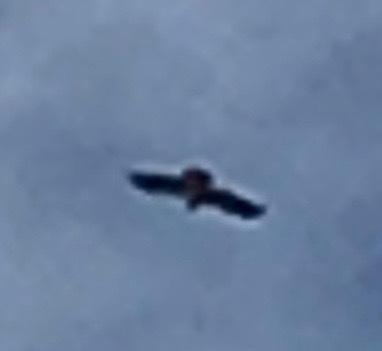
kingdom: Animalia
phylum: Chordata
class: Aves
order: Accipitriformes
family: Accipitridae
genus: Buteo
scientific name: Buteo swainsoni
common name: Swainson's hawk
